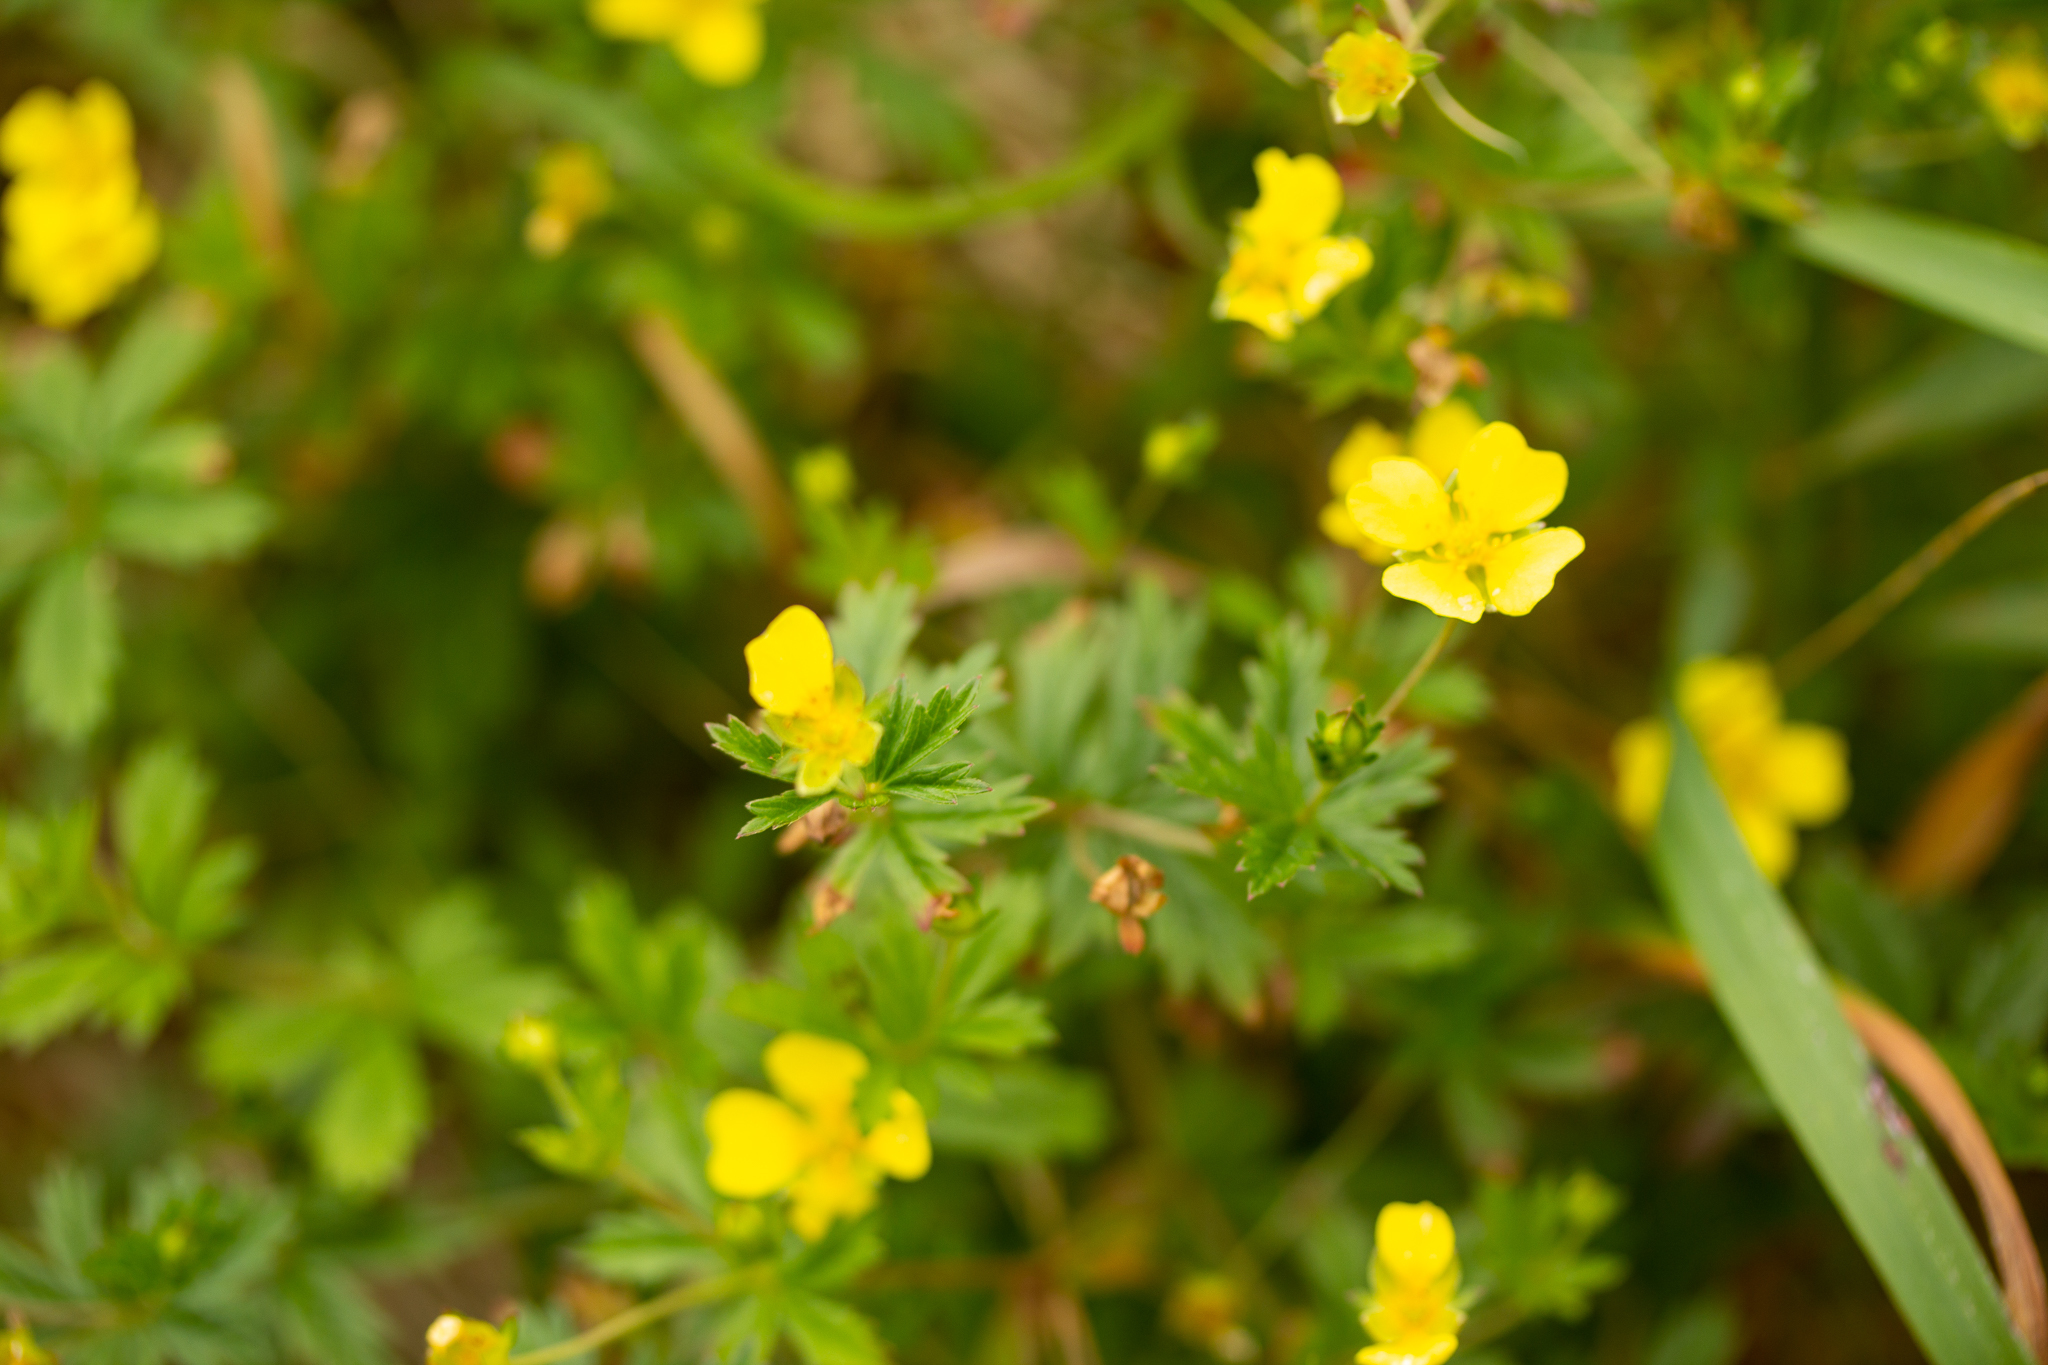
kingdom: Plantae
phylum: Tracheophyta
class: Magnoliopsida
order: Rosales
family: Rosaceae
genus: Potentilla
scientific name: Potentilla erecta
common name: Tormentil
